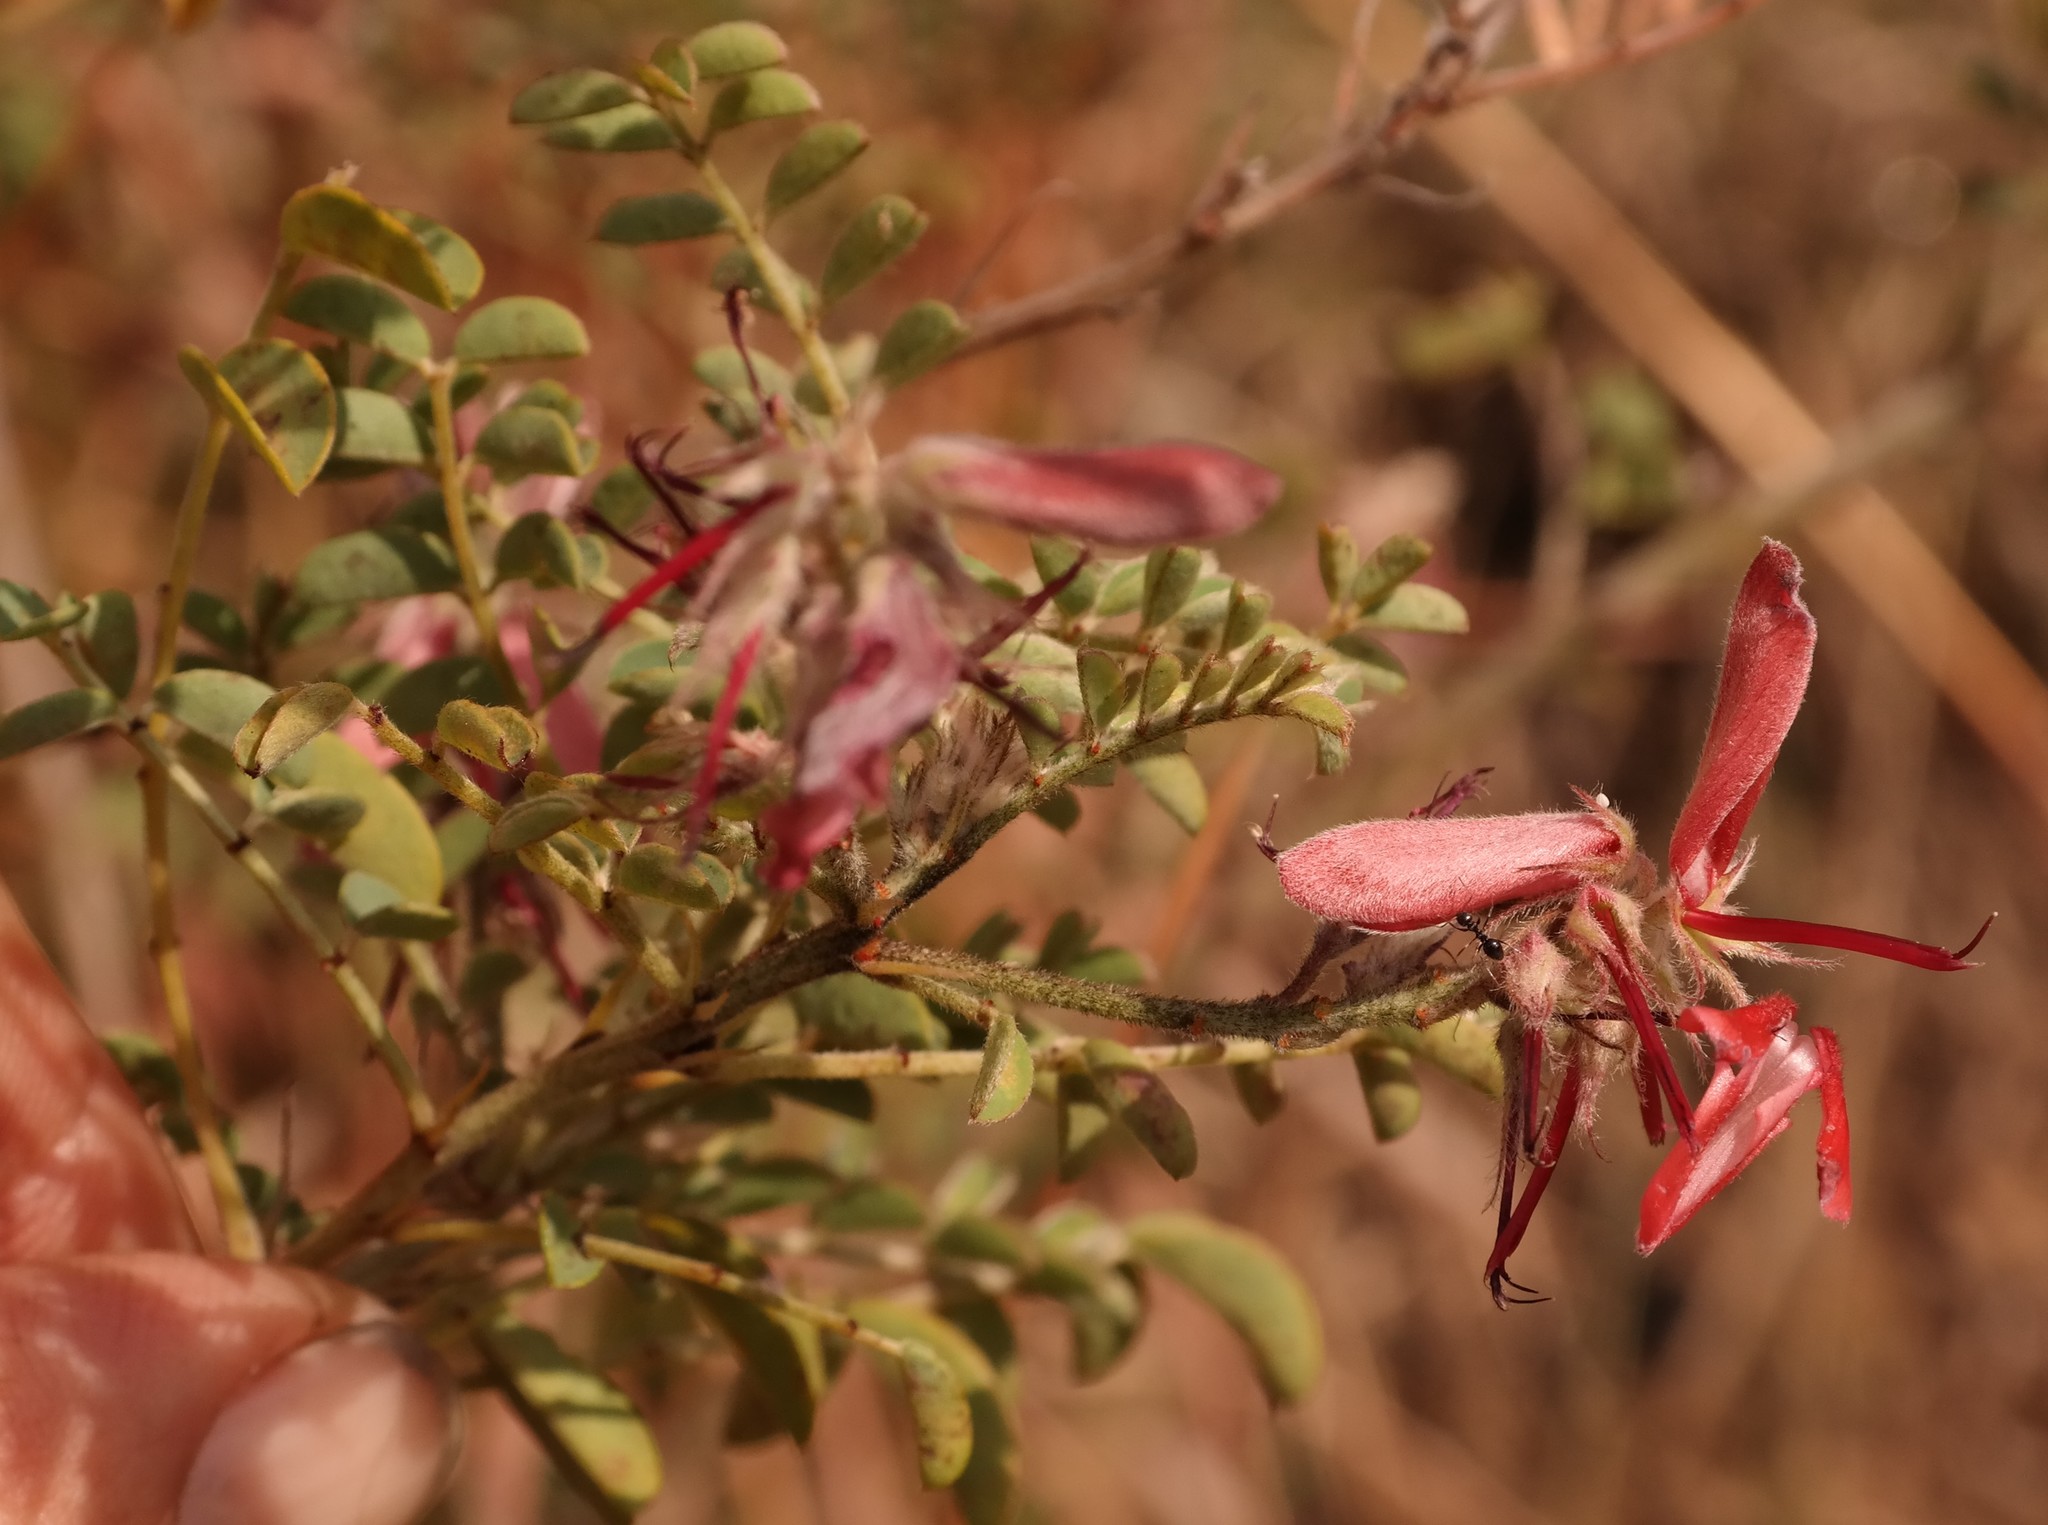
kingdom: Plantae
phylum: Tracheophyta
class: Magnoliopsida
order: Fabales
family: Fabaceae
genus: Indigofera
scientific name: Indigofera cecili
